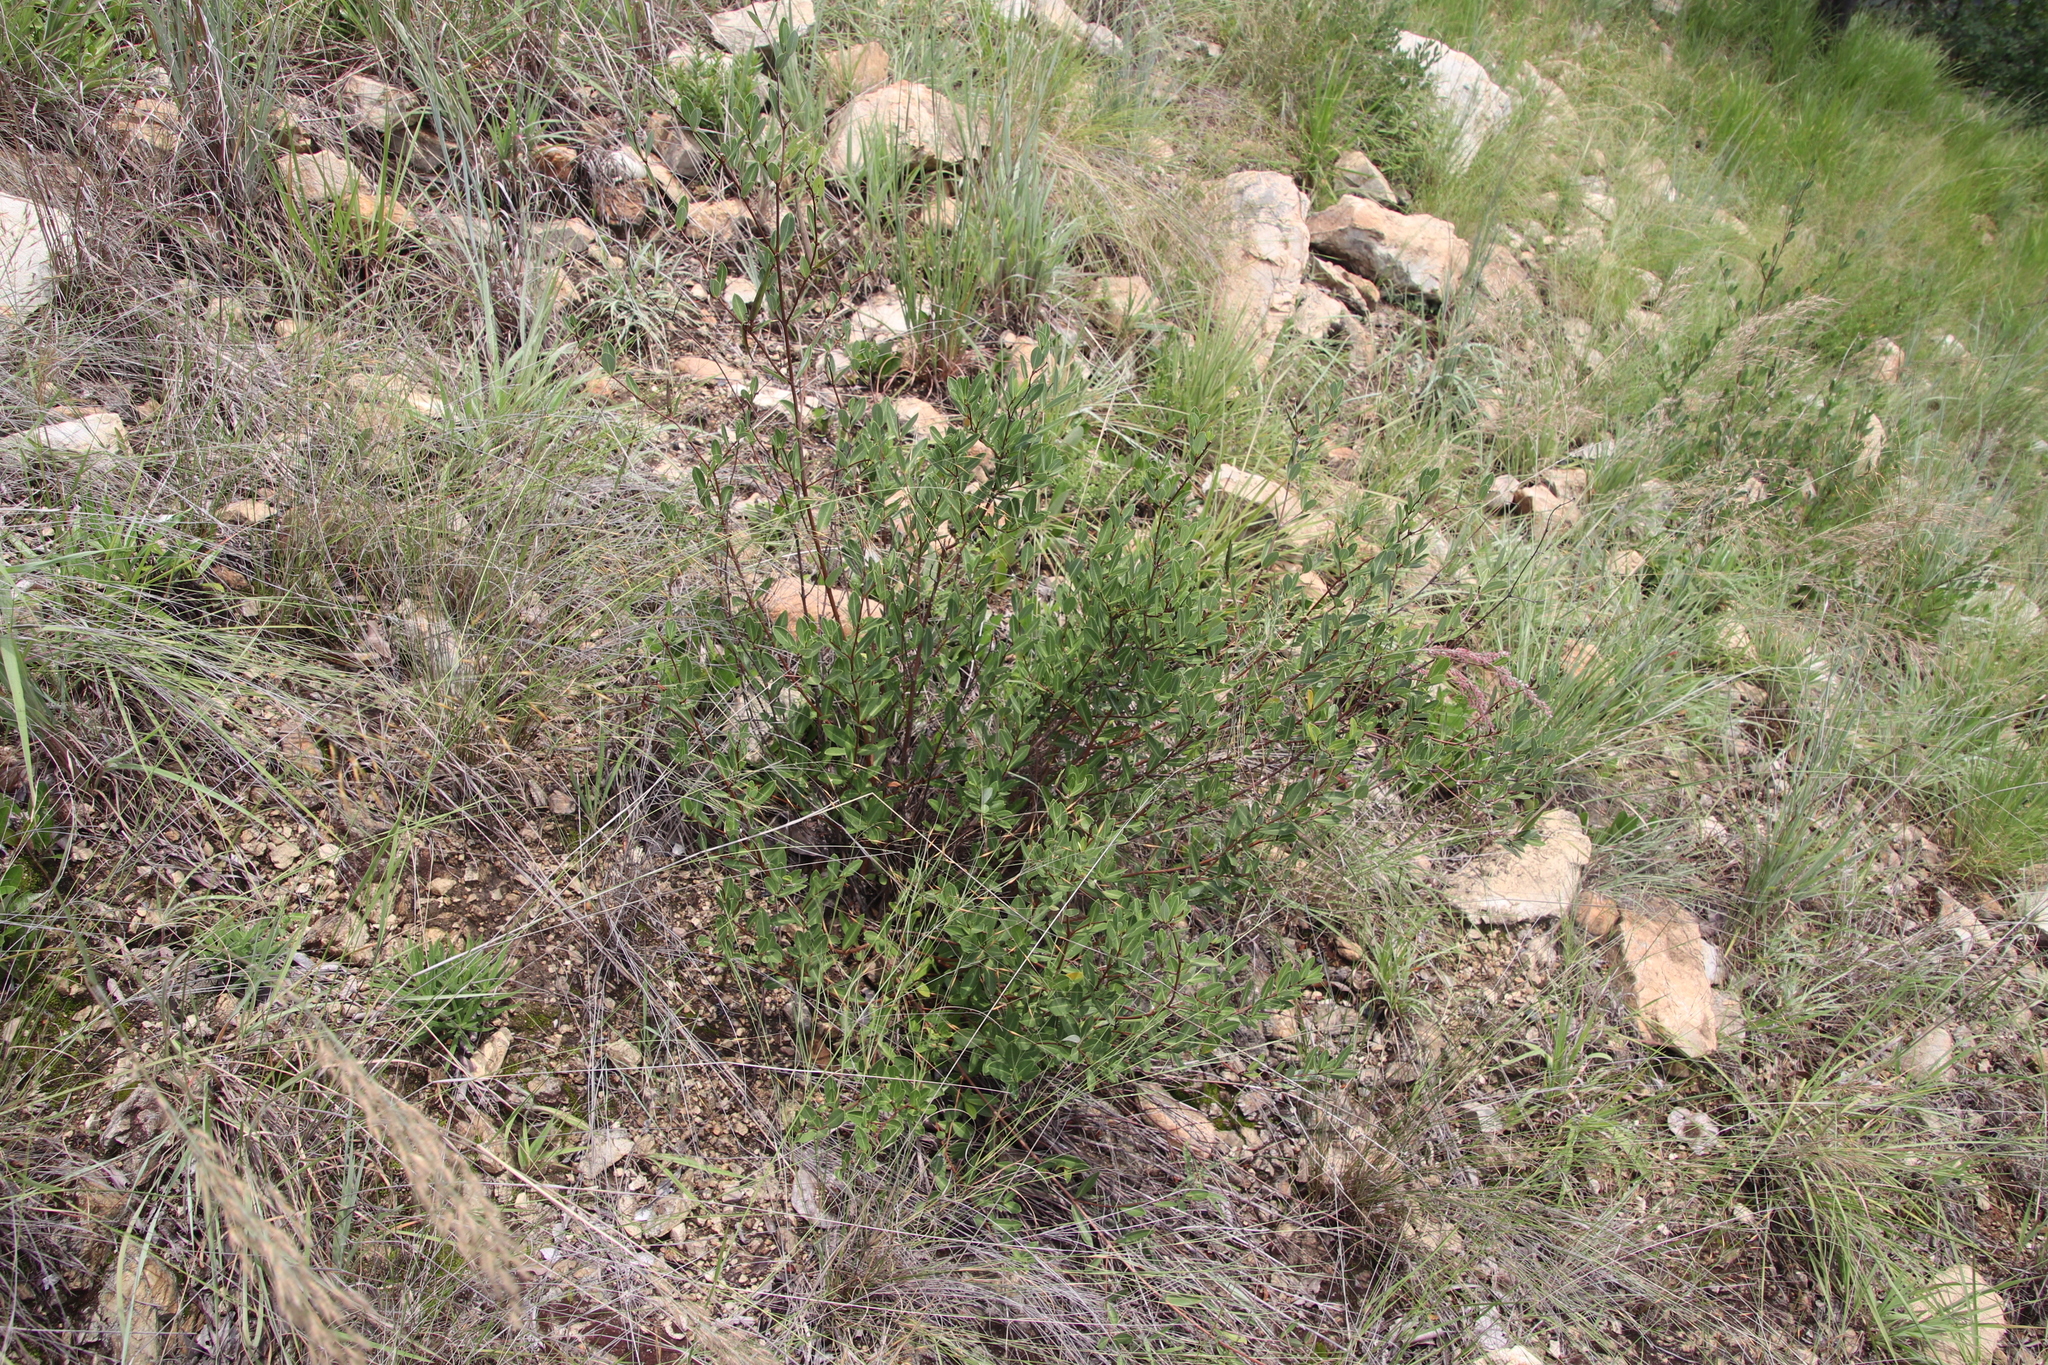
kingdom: Plantae
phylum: Tracheophyta
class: Magnoliopsida
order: Gentianales
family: Apocynaceae
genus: Cryptolepis
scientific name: Cryptolepis oblongifolia
